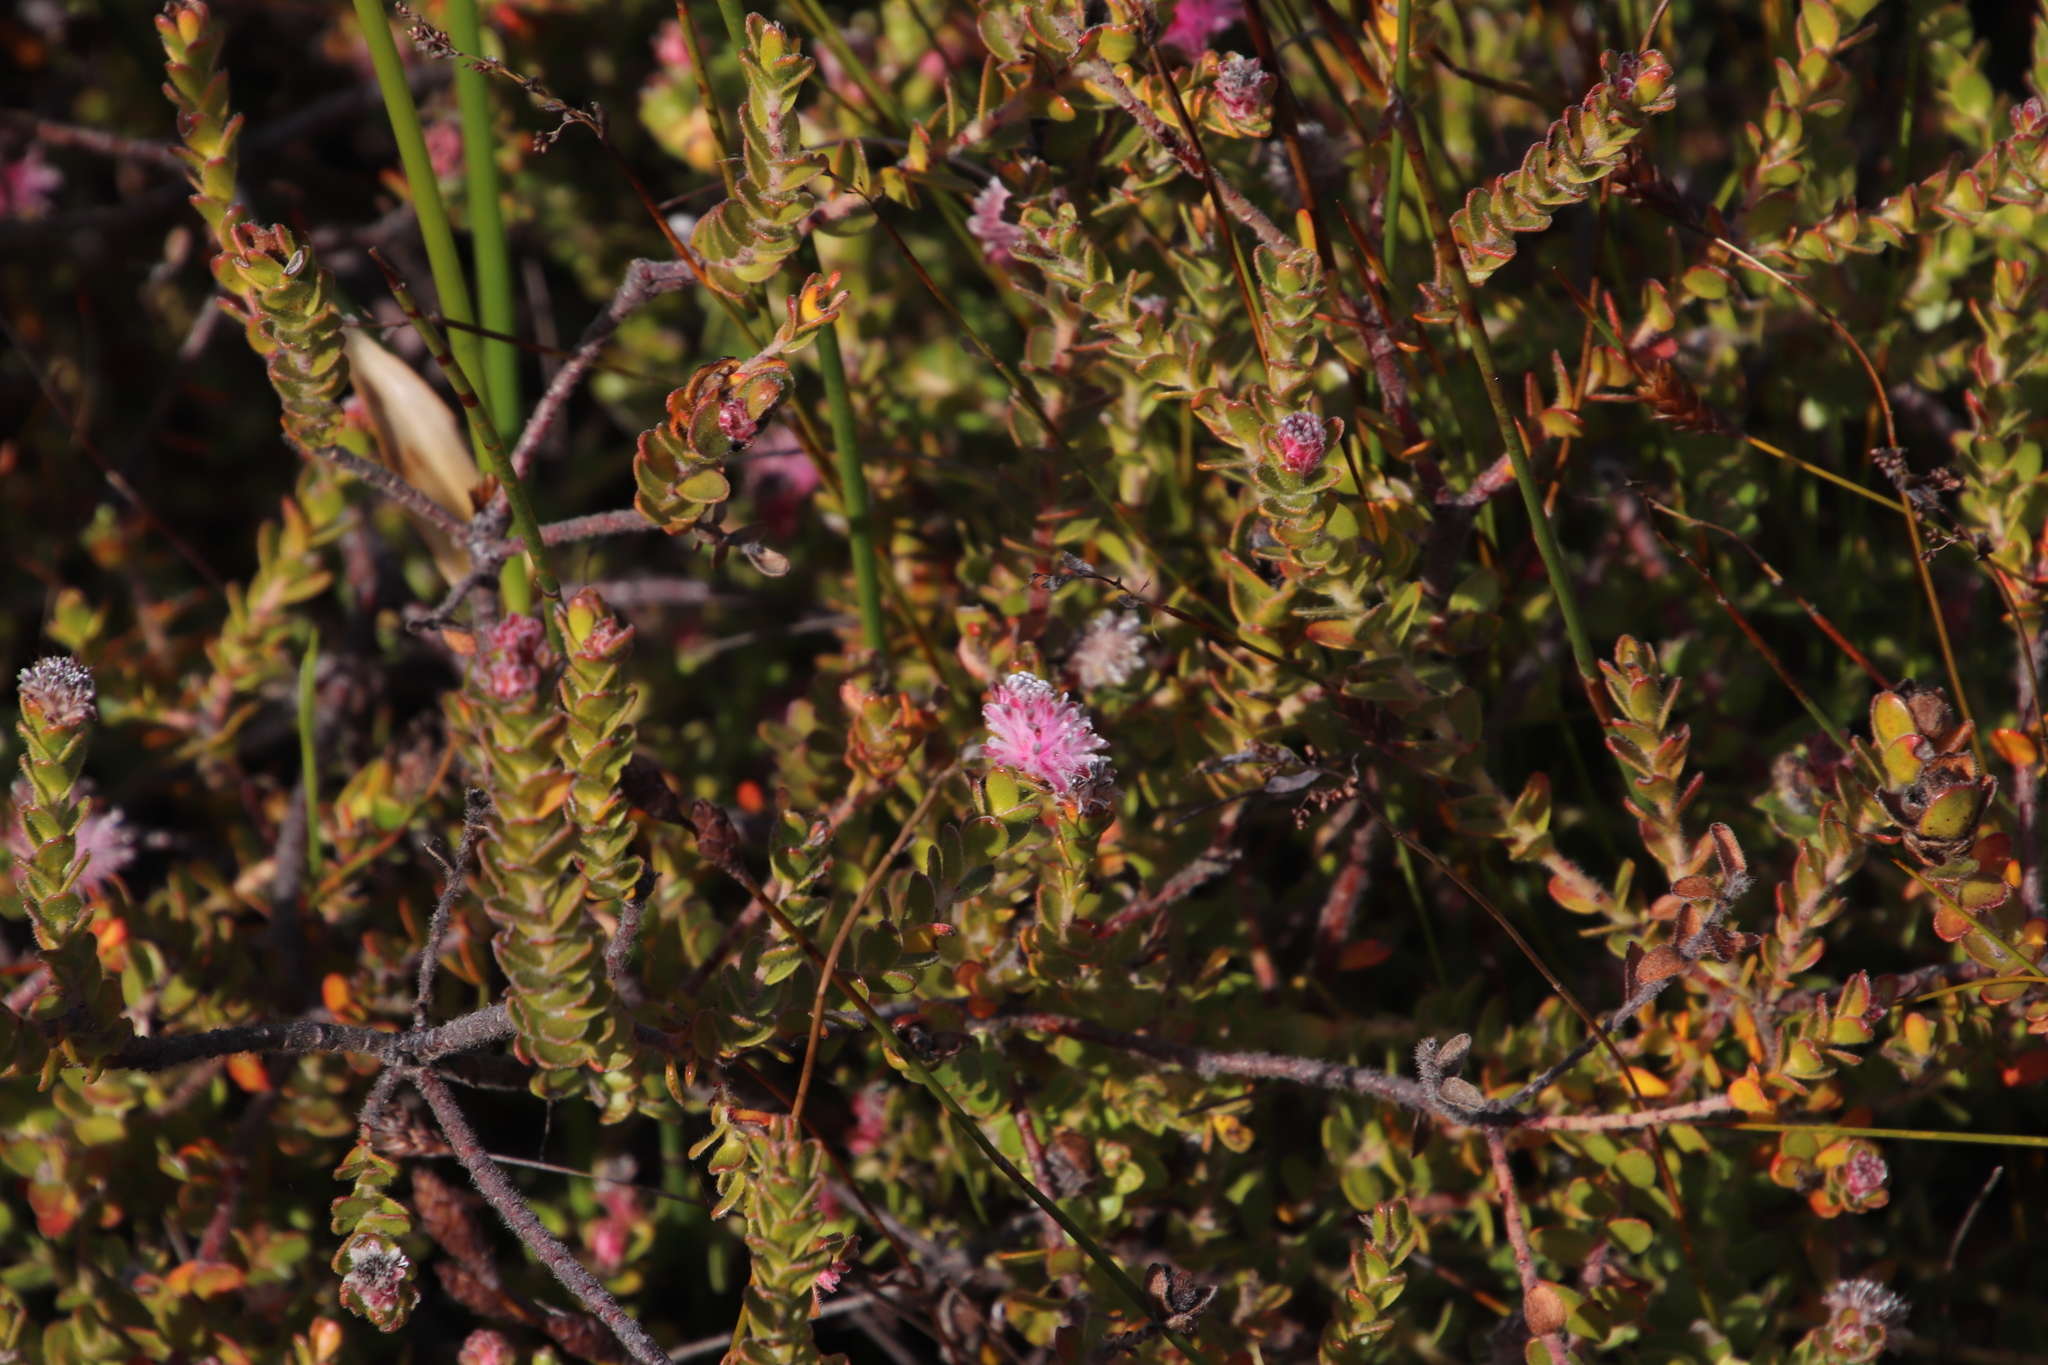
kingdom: Plantae
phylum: Tracheophyta
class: Magnoliopsida
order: Proteales
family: Proteaceae
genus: Diastella
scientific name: Diastella divaricata
